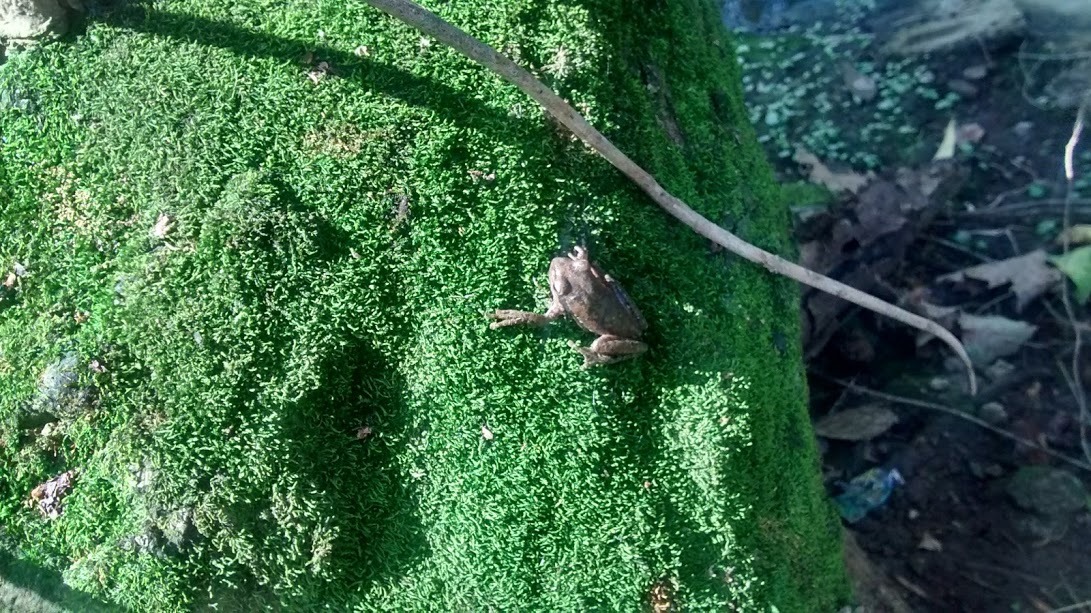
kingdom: Animalia
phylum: Chordata
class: Amphibia
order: Anura
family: Hylidae
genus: Boana
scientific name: Boana pulchella
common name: Montevideo treefrog
